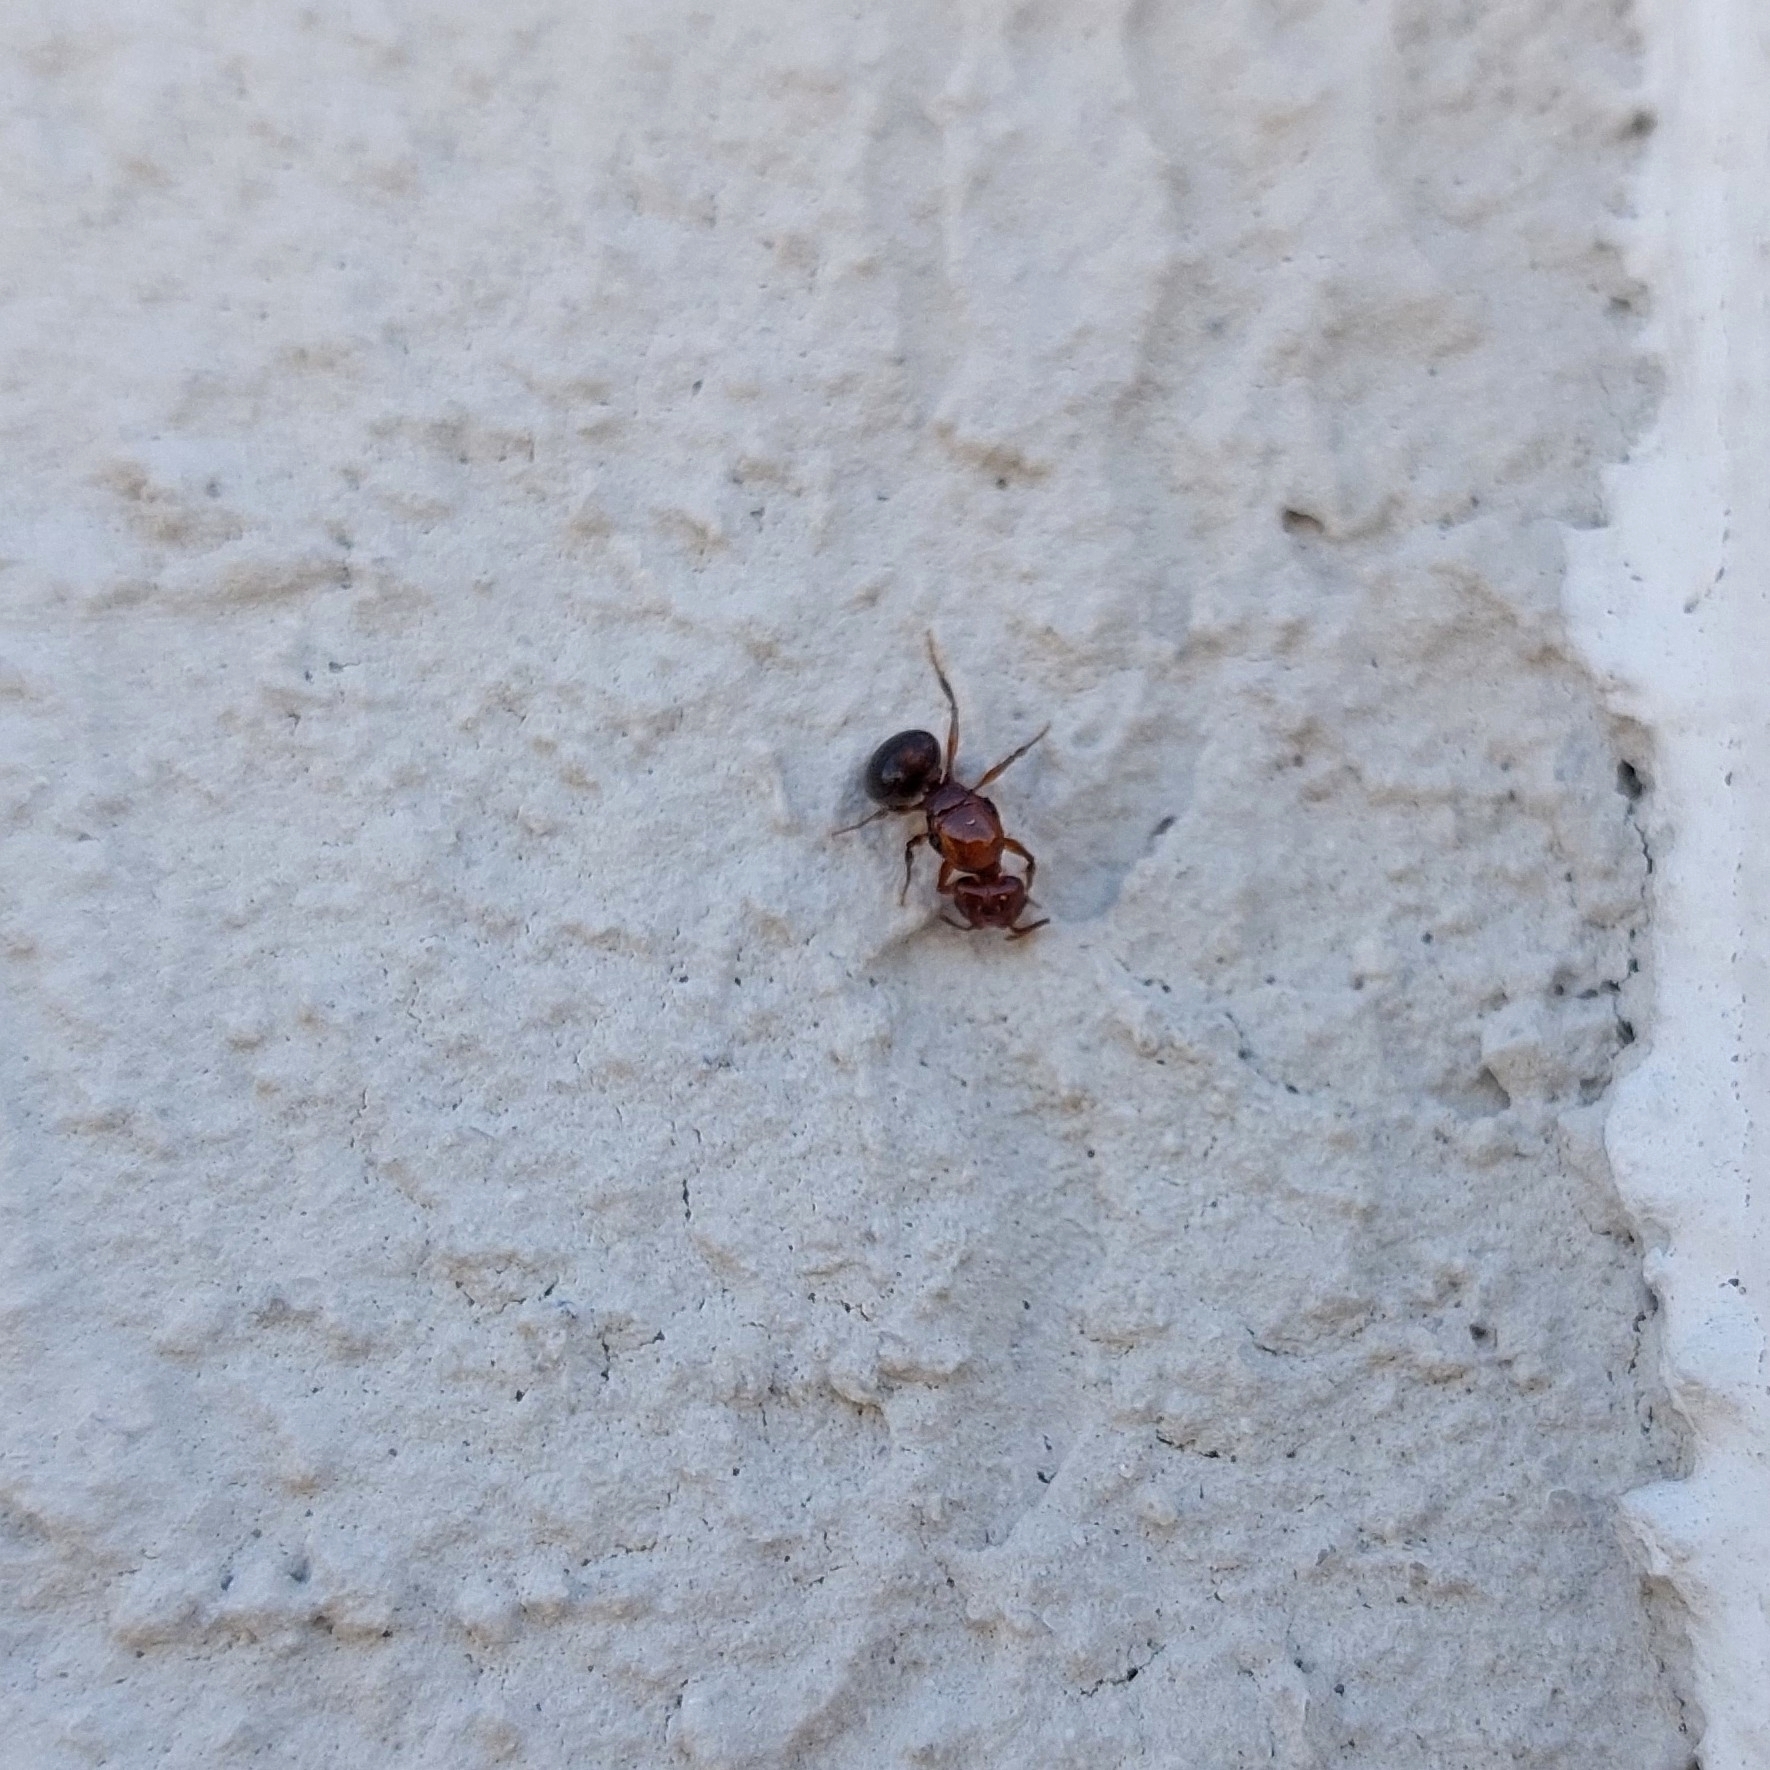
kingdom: Animalia
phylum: Arthropoda
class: Insecta
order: Hymenoptera
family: Formicidae
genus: Pheidole
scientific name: Pheidole
